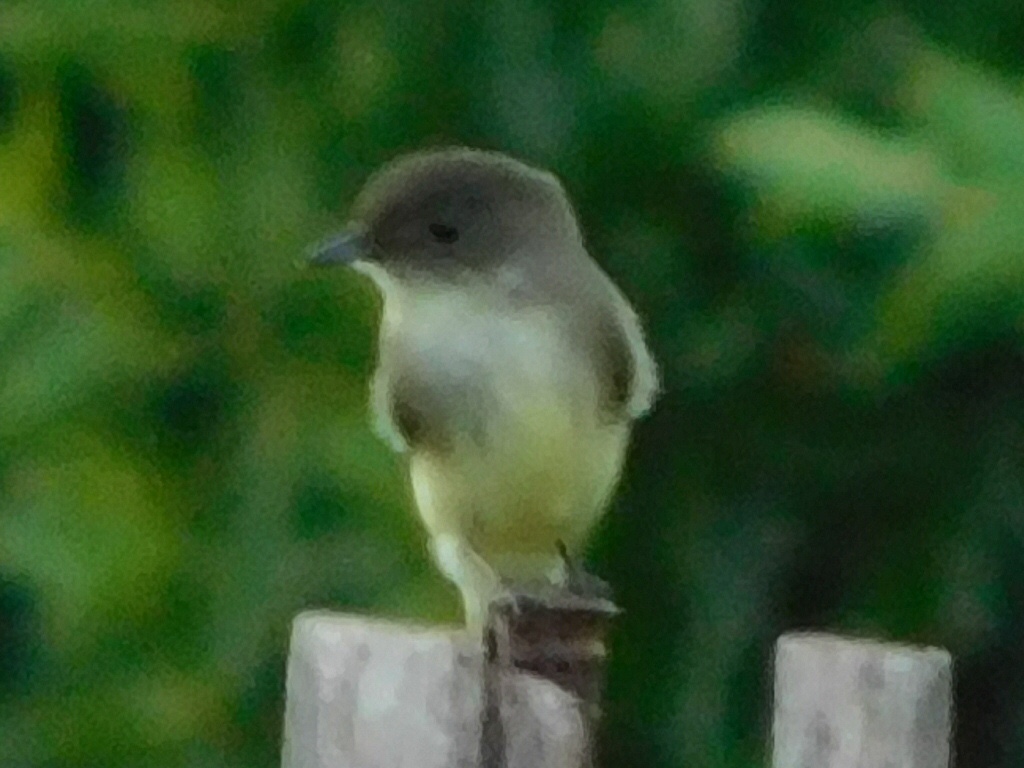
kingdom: Animalia
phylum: Chordata
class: Aves
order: Passeriformes
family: Tyrannidae
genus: Sayornis
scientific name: Sayornis phoebe
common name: Eastern phoebe
